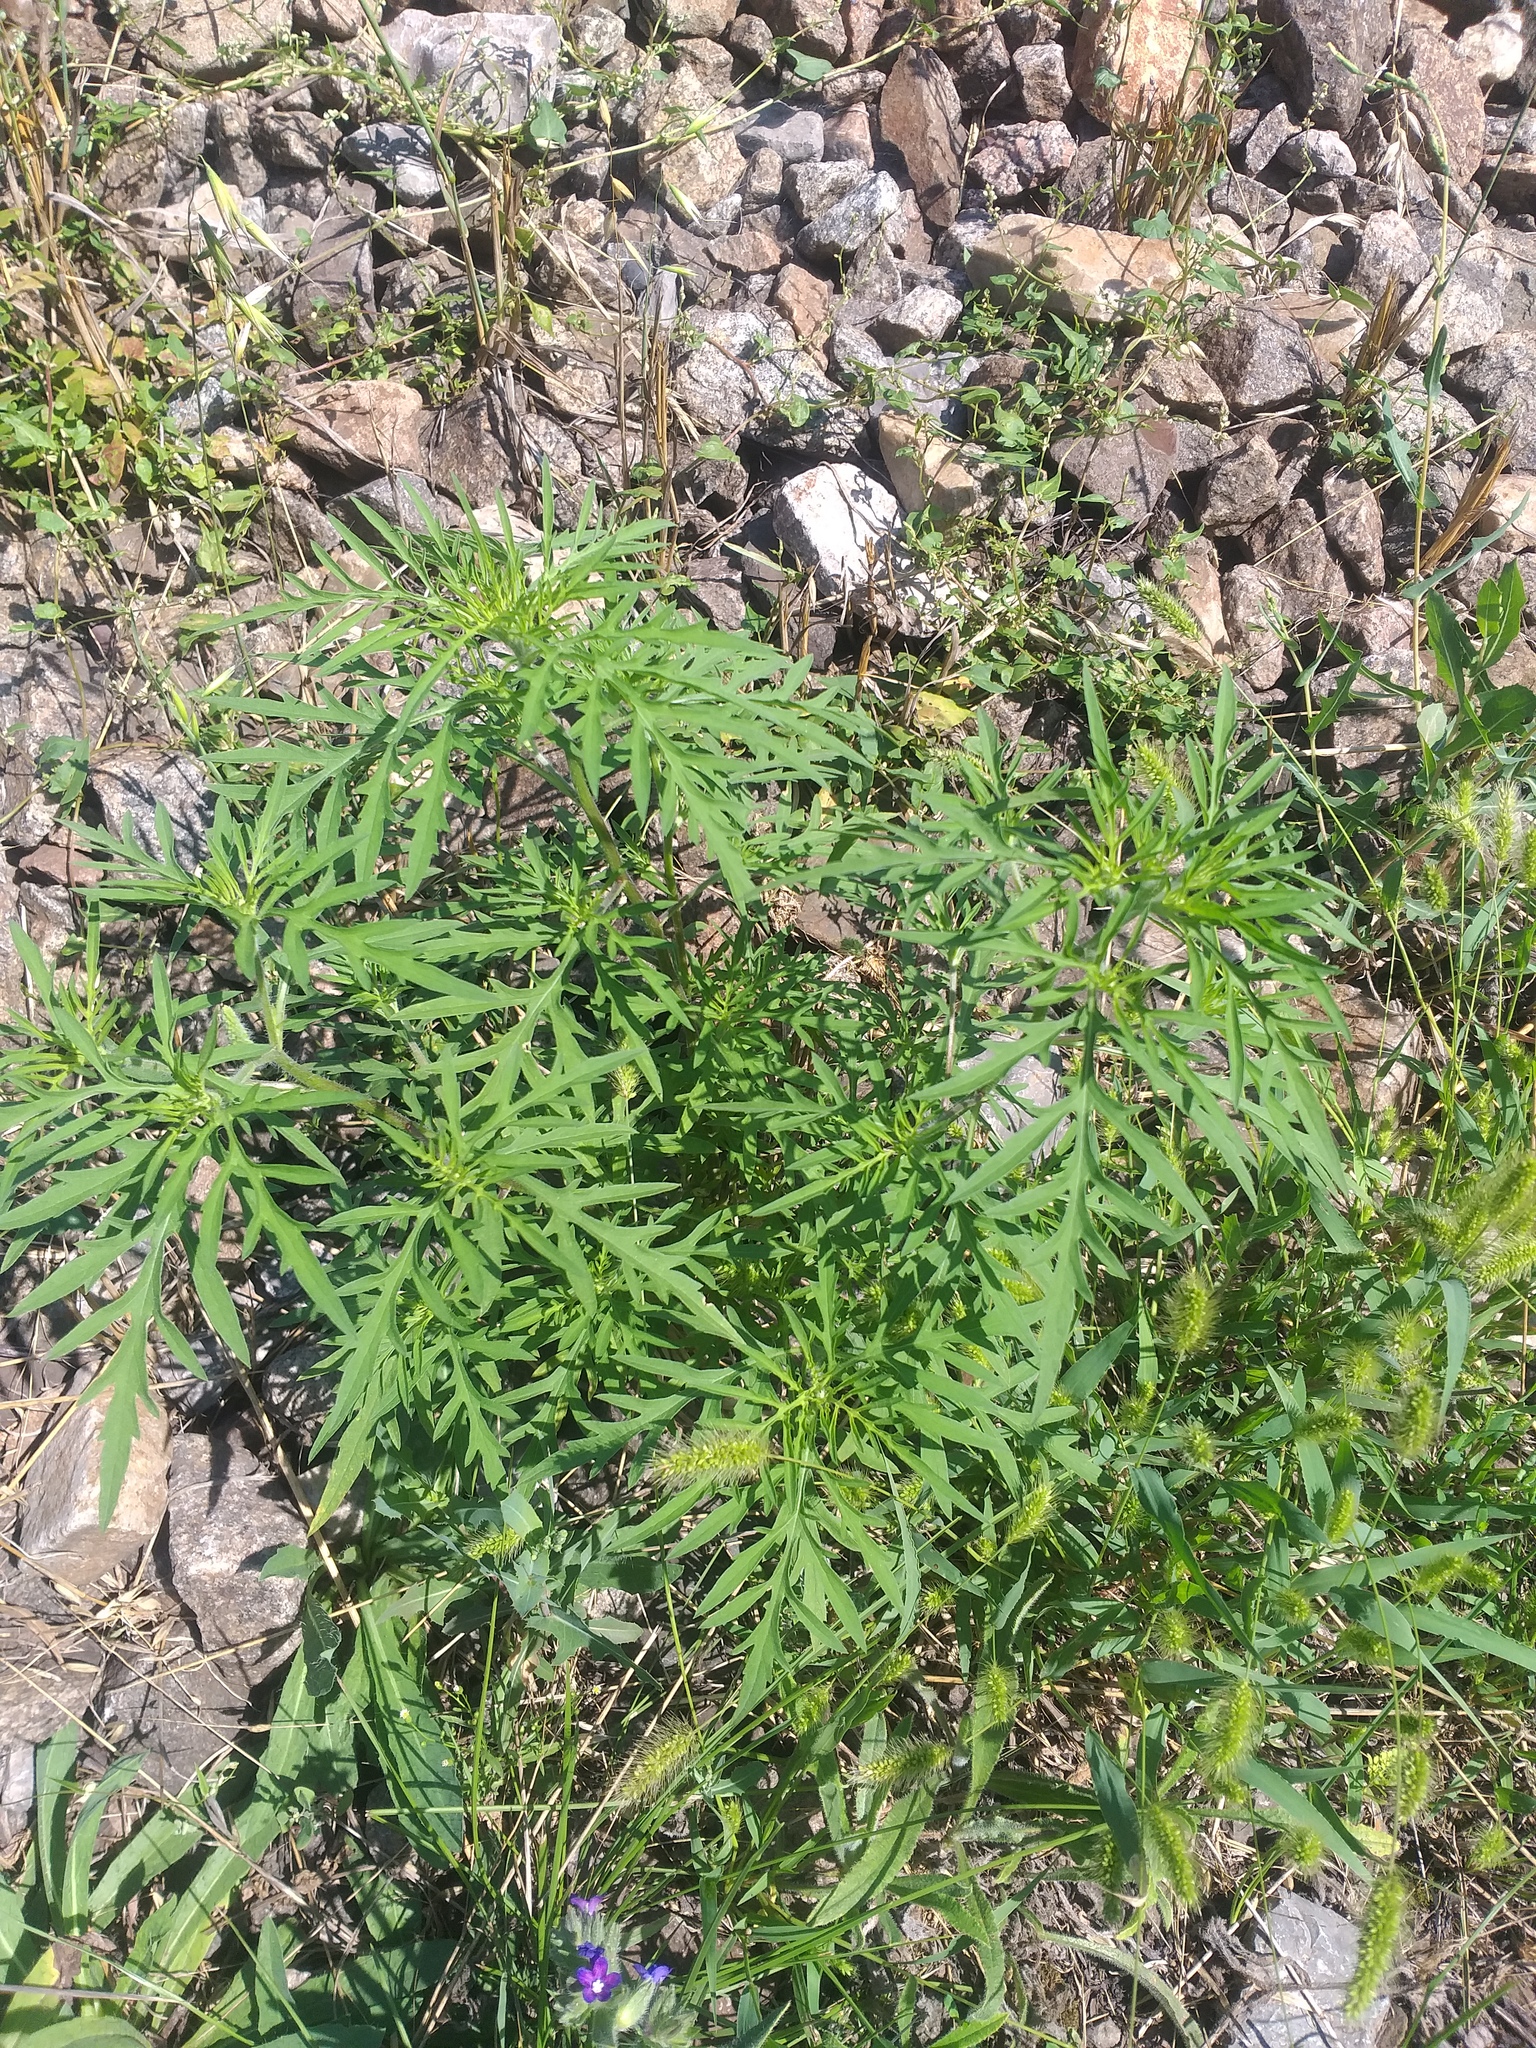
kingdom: Plantae
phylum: Tracheophyta
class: Magnoliopsida
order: Asterales
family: Asteraceae
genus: Ambrosia
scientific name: Ambrosia artemisiifolia
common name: Annual ragweed
